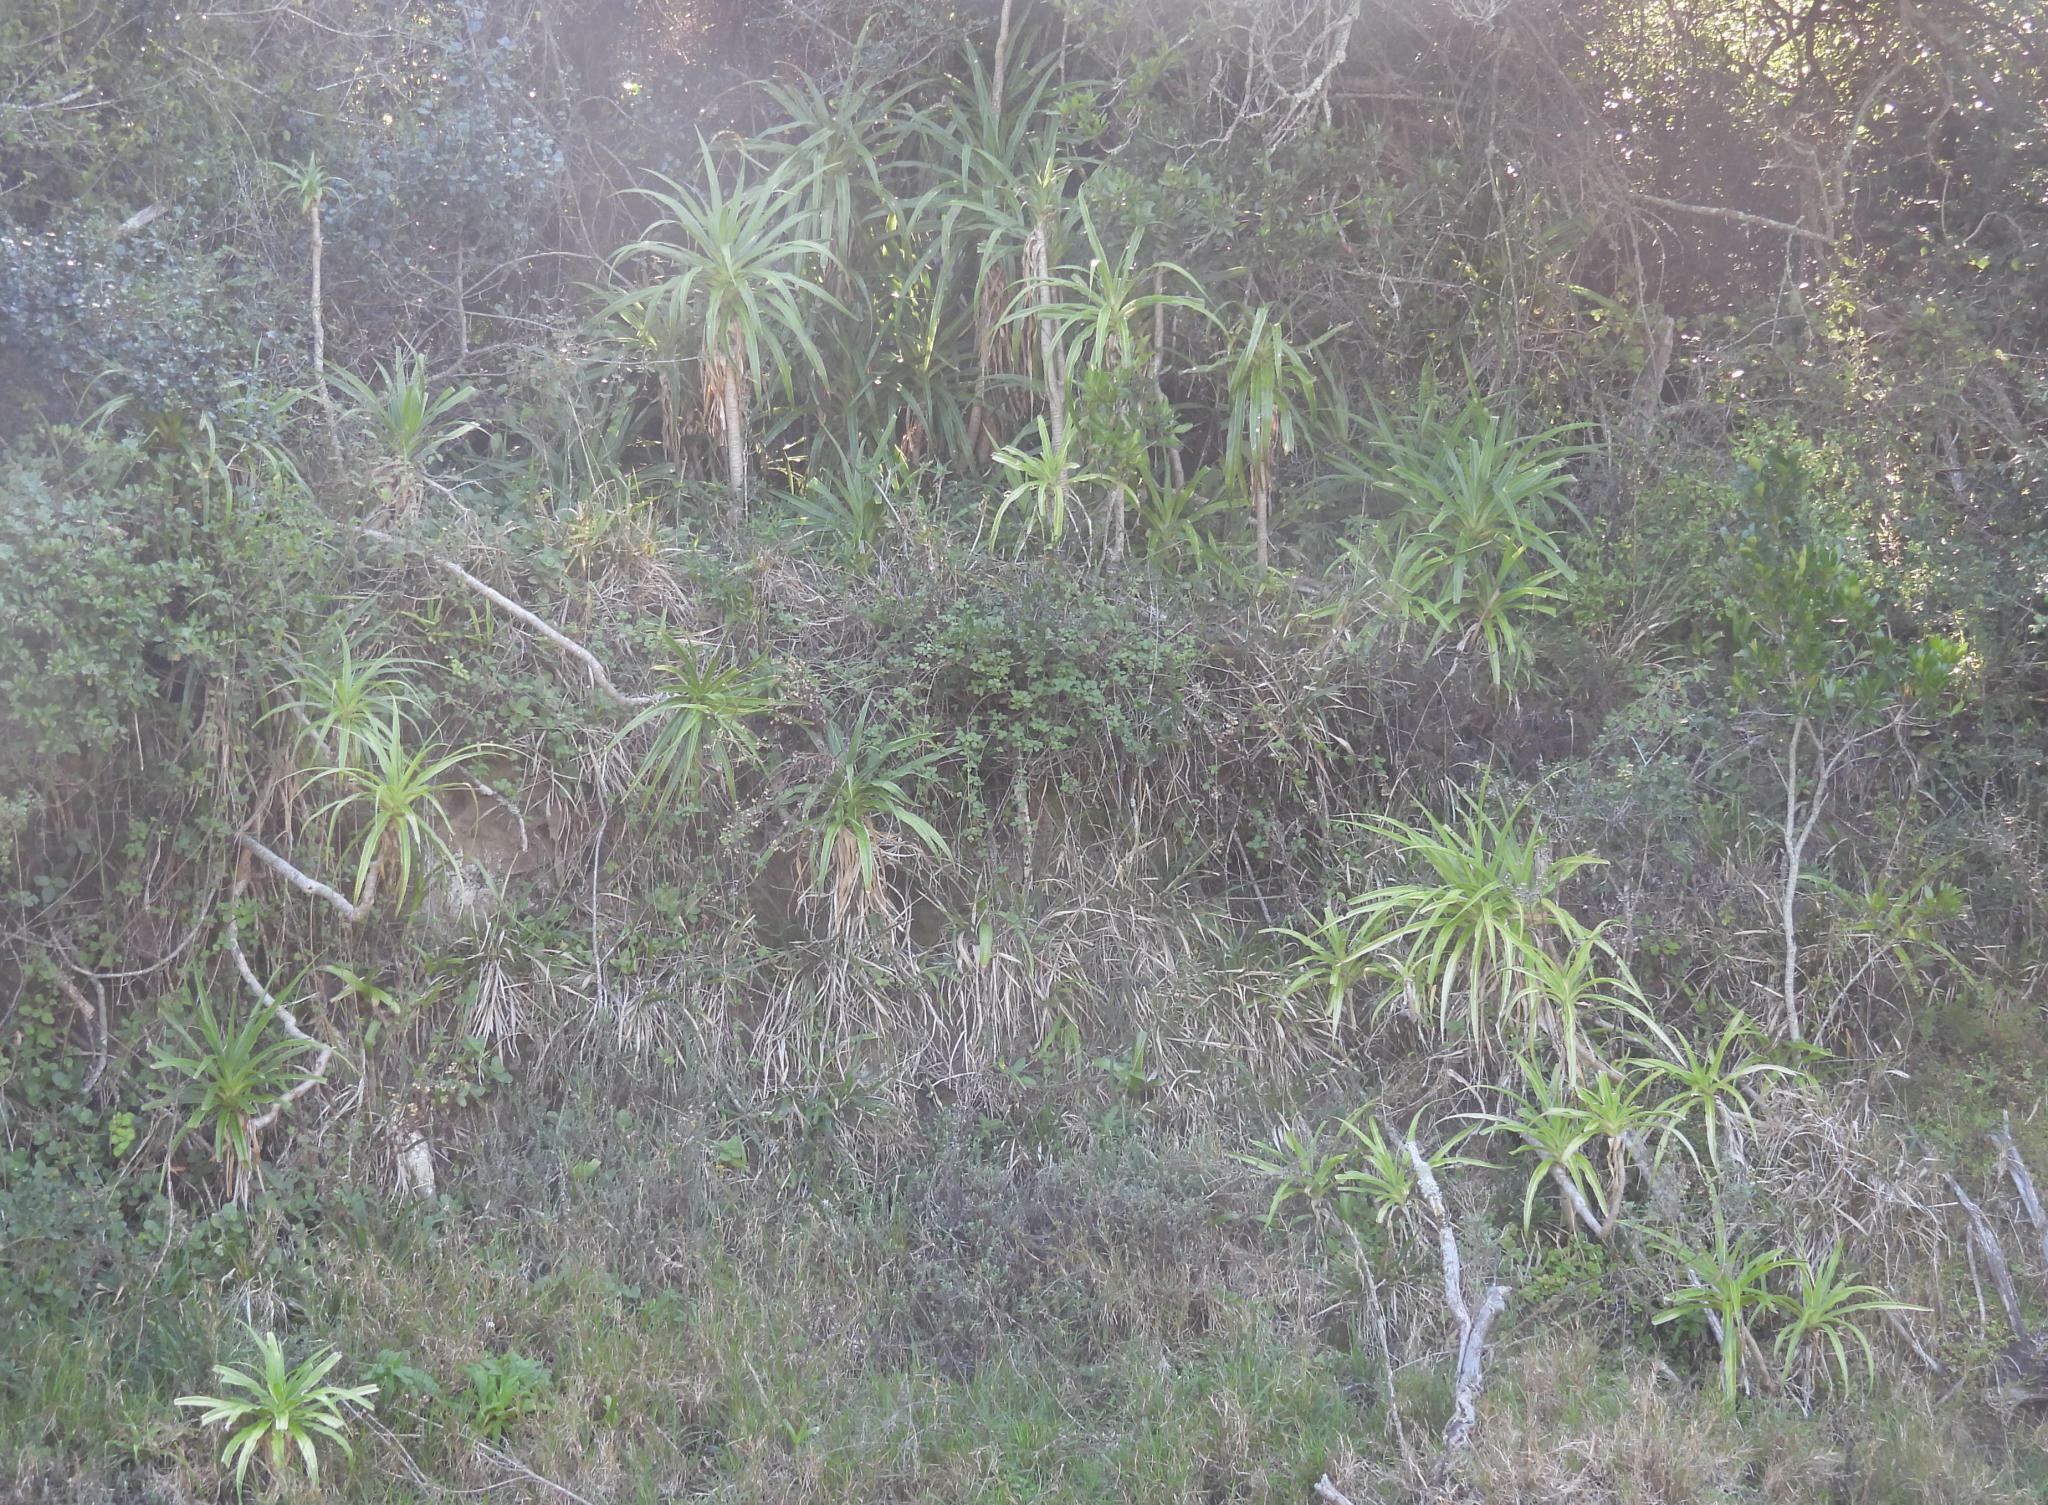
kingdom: Plantae
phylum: Tracheophyta
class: Liliopsida
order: Asparagales
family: Asparagaceae
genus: Dracaena
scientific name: Dracaena aletriformis
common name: Large-leaved dragon tree
